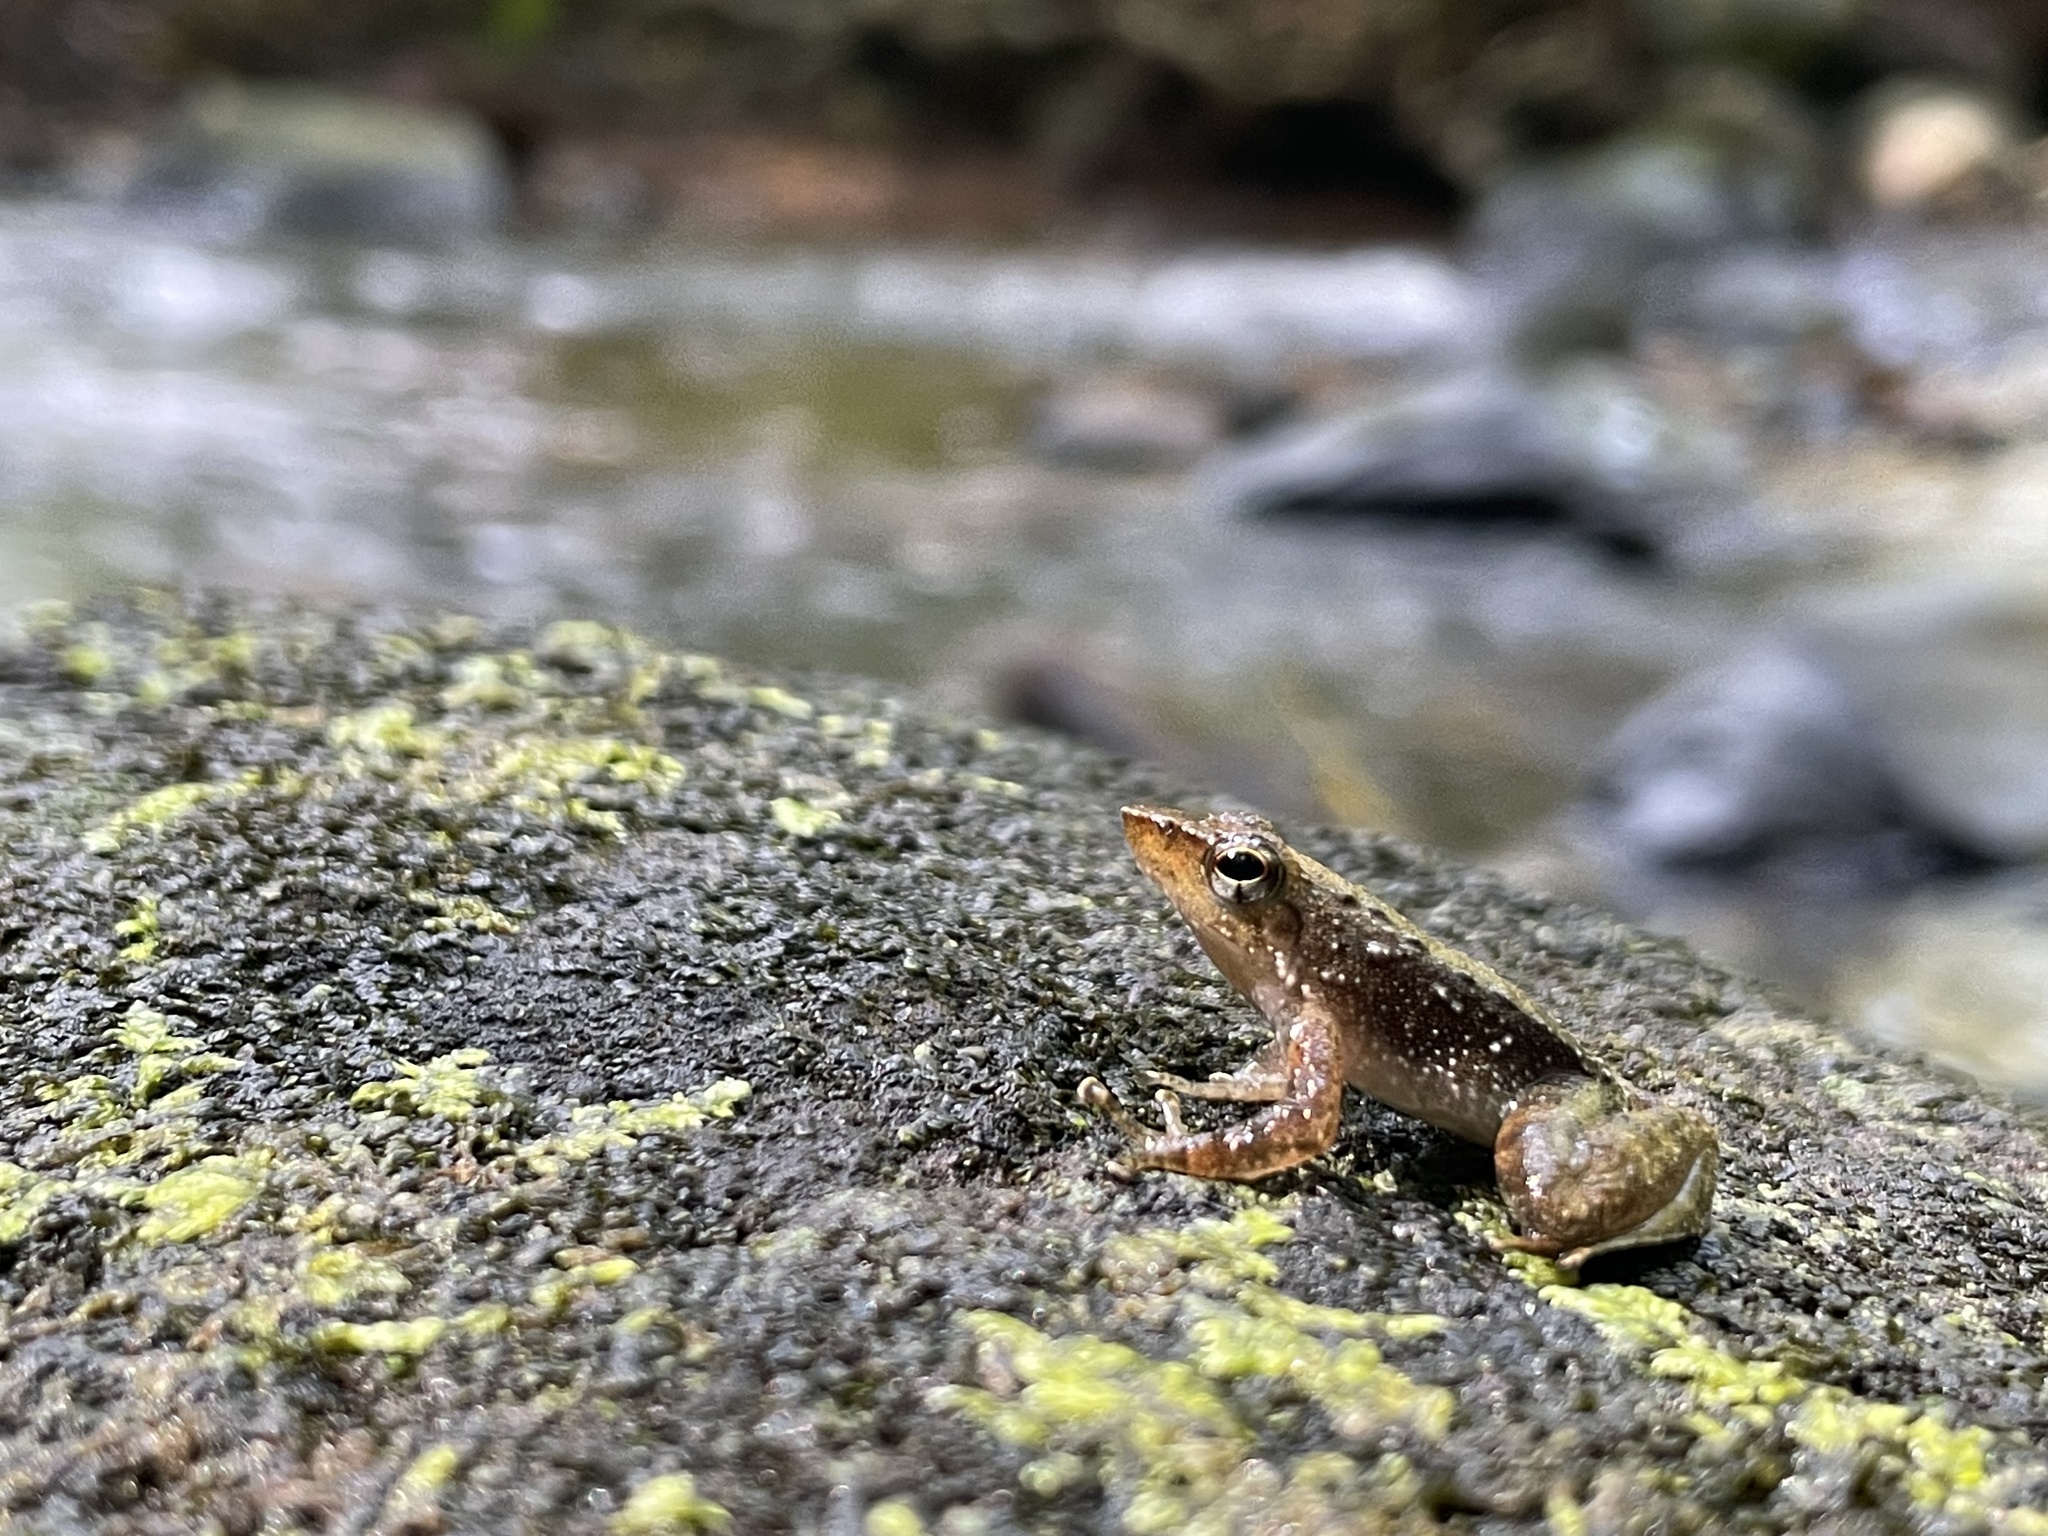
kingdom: Animalia
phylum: Chordata
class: Amphibia
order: Anura
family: Micrixalidae
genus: Micrixalus
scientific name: Micrixalus kottigeharensis
